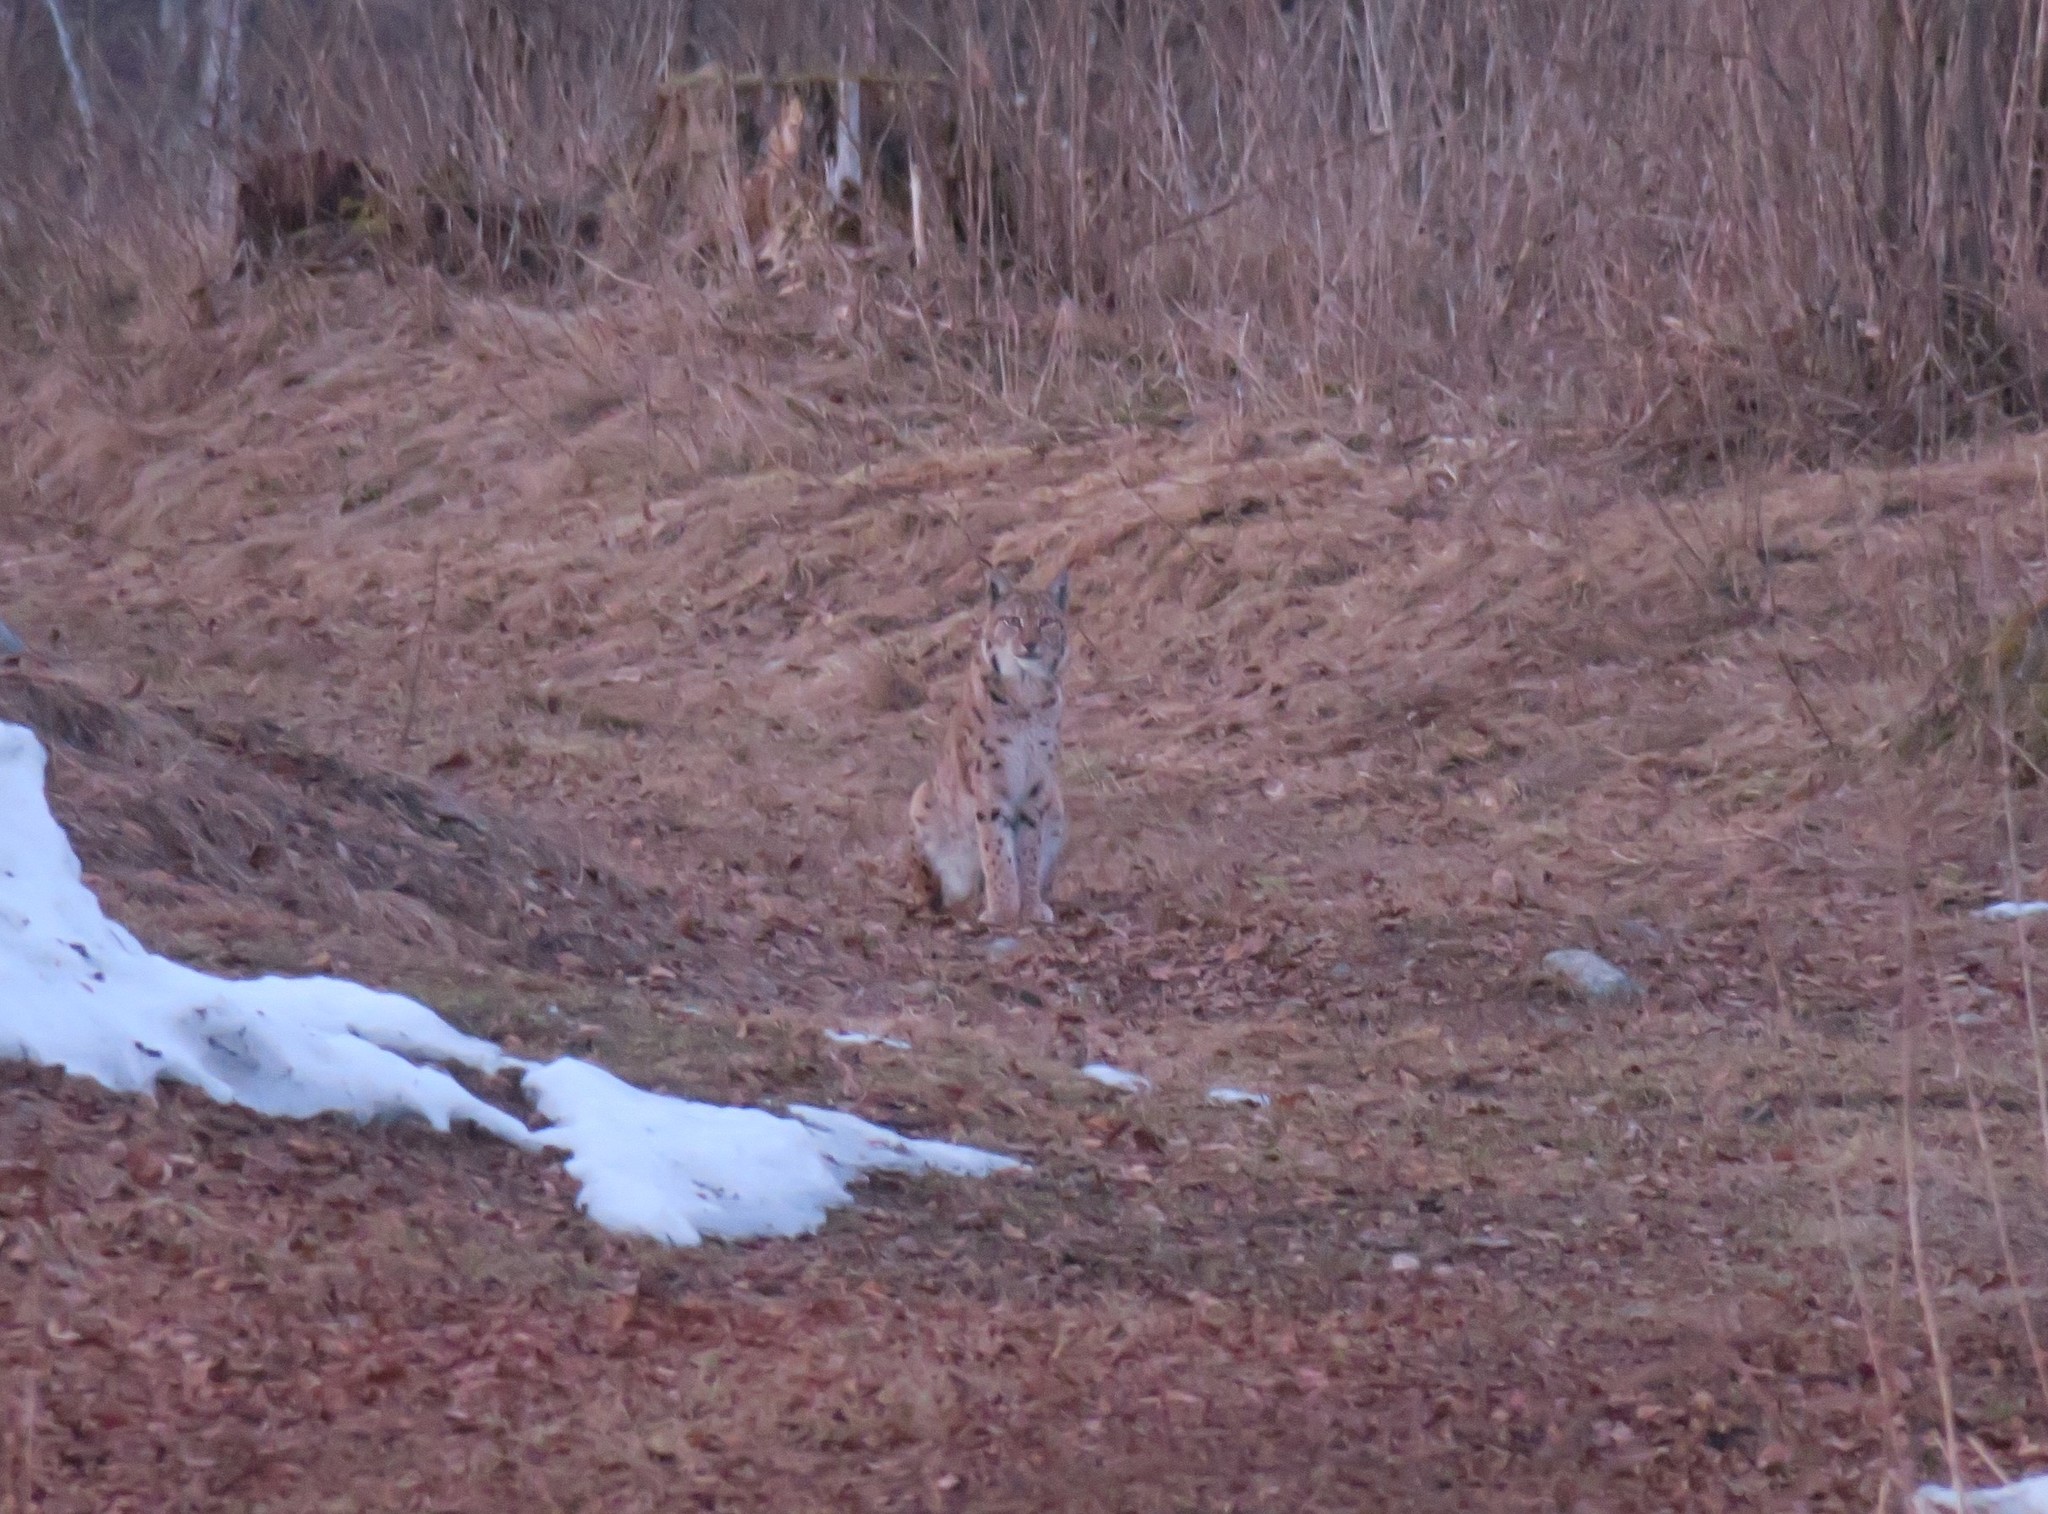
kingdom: Animalia
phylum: Chordata
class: Mammalia
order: Carnivora
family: Felidae
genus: Lynx
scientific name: Lynx lynx
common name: Eurasian lynx
